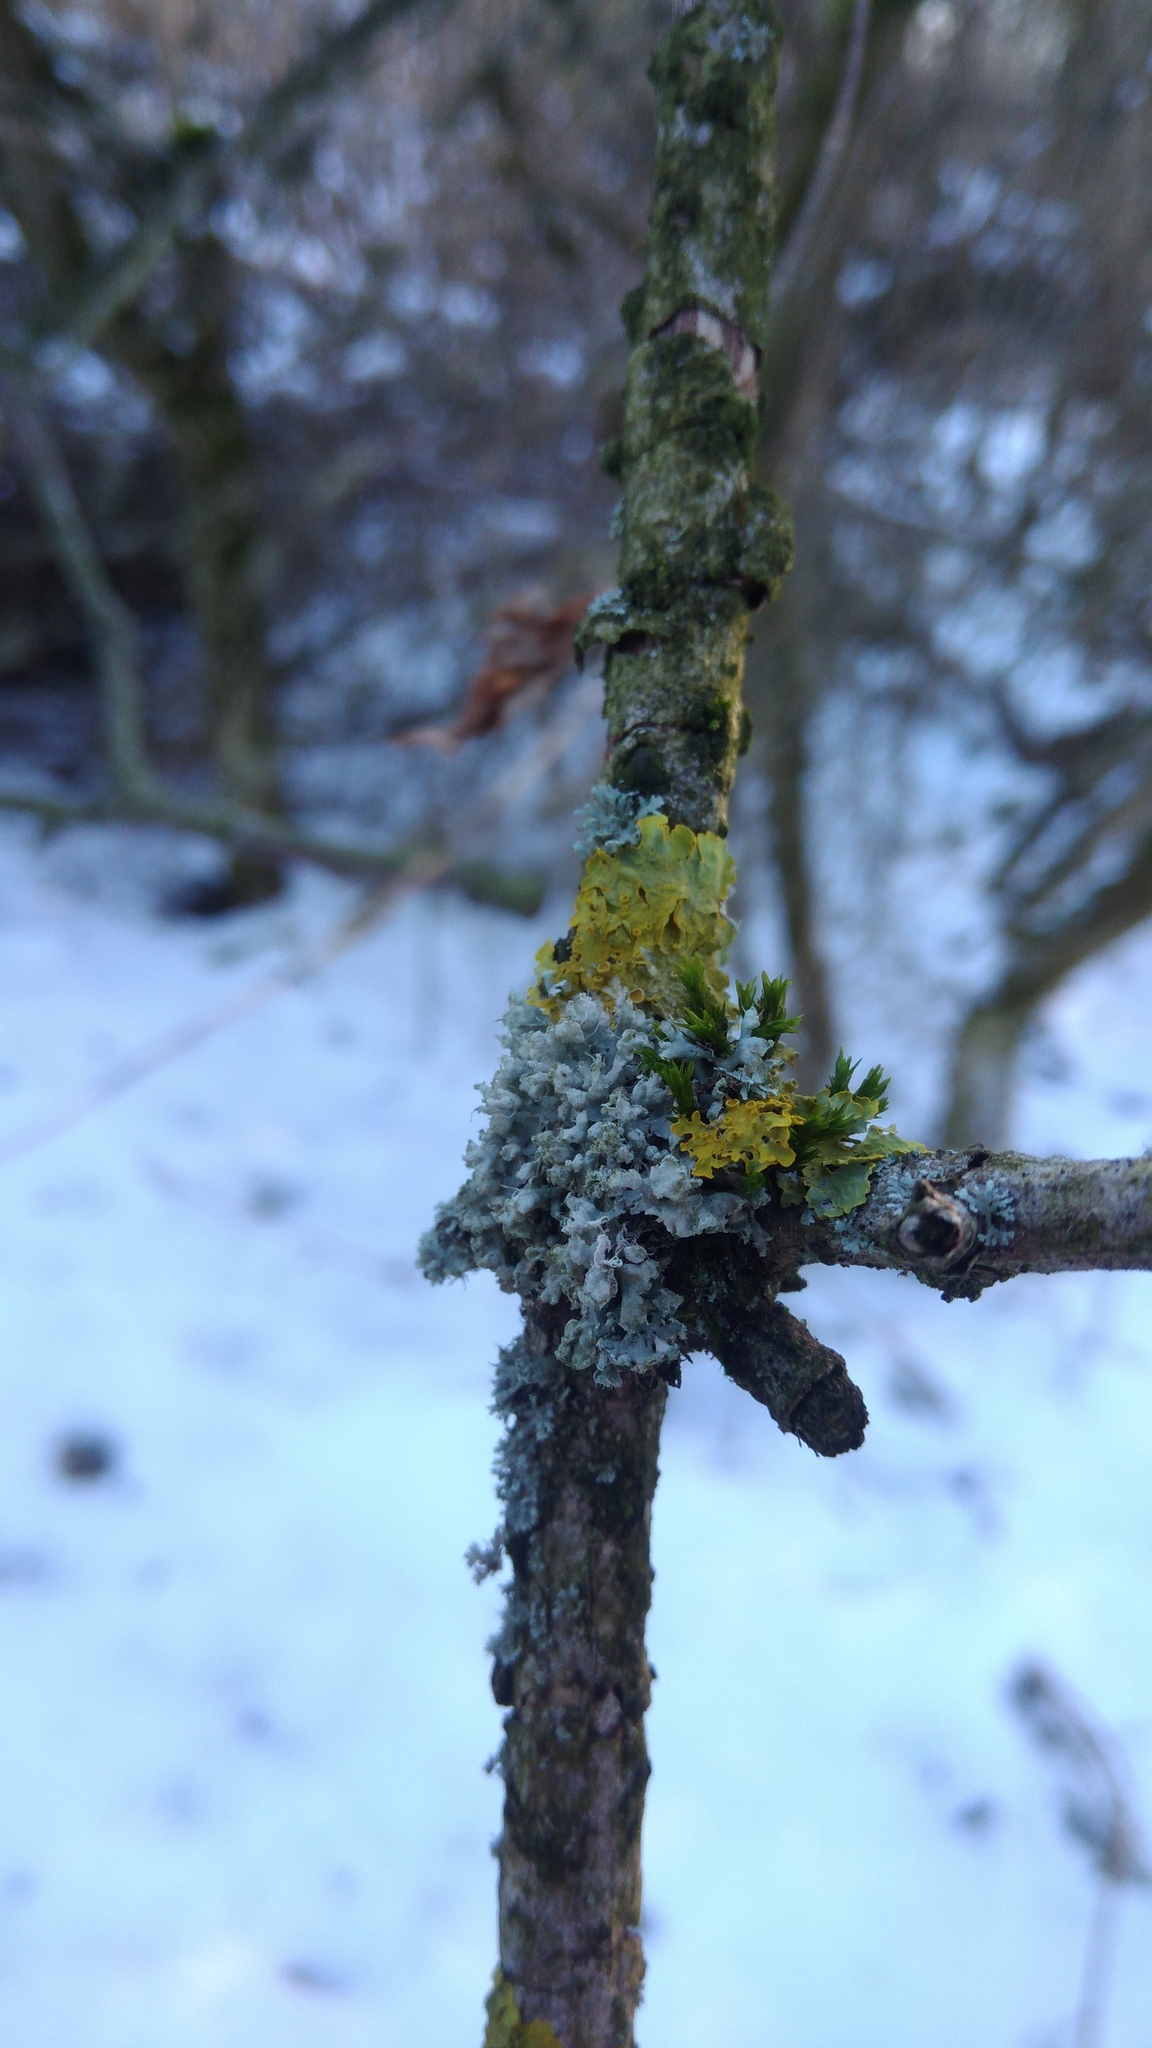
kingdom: Fungi
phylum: Ascomycota
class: Lecanoromycetes
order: Caliciales
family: Physciaceae
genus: Physcia
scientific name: Physcia adscendens
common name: Hooded rosette lichen
